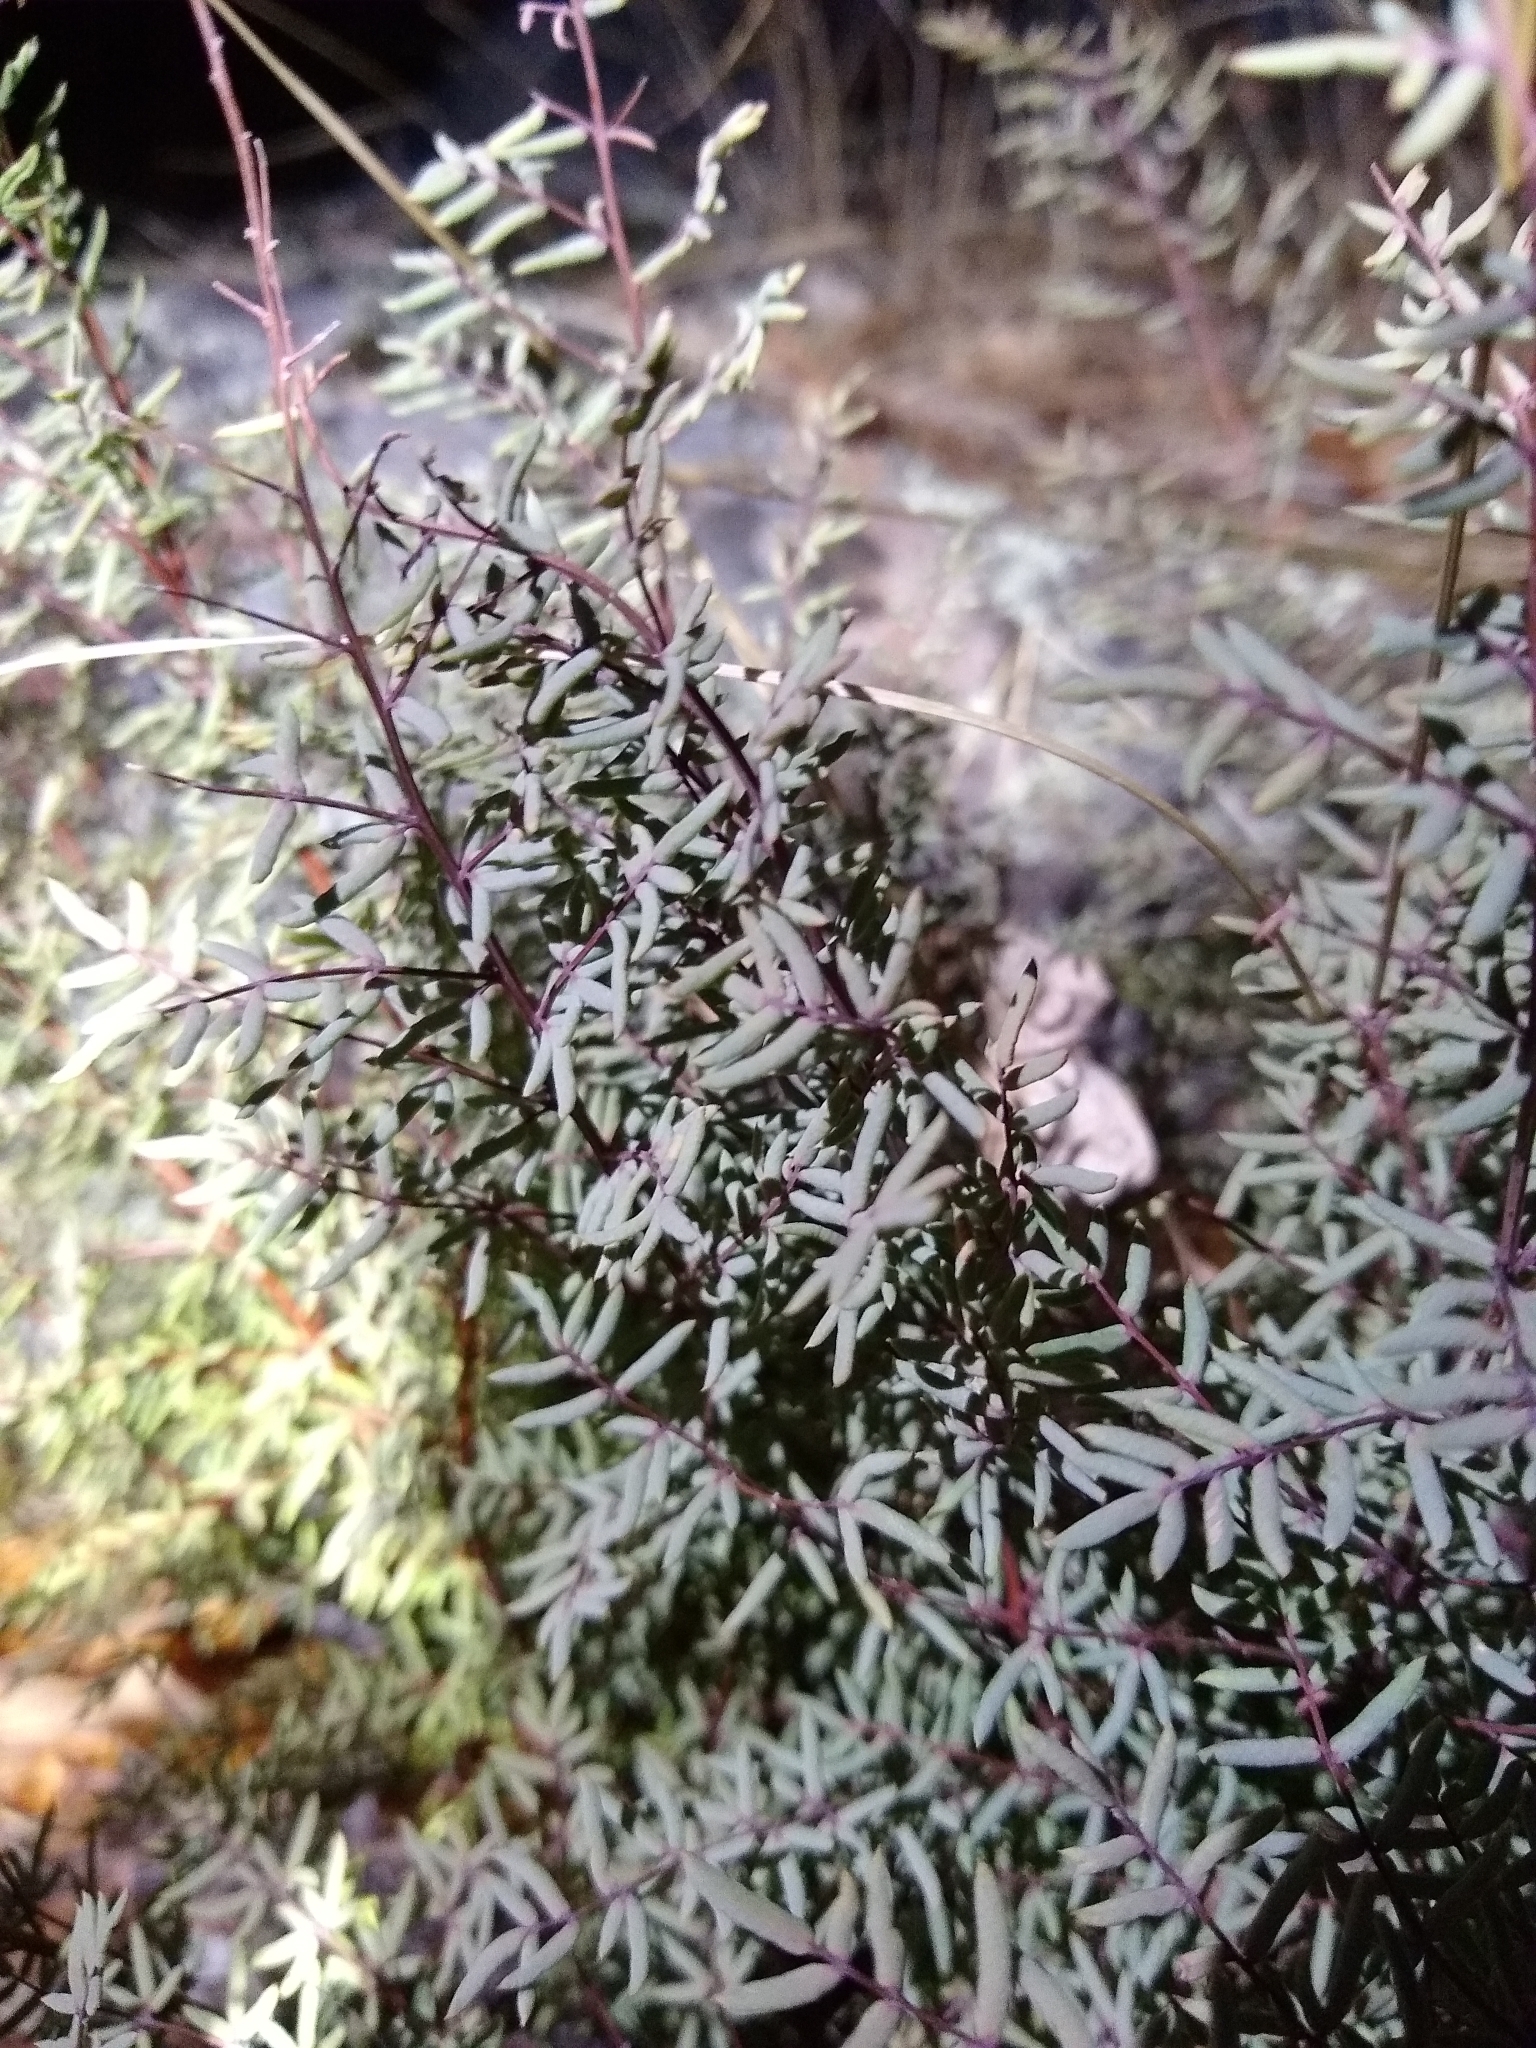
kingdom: Plantae
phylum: Tracheophyta
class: Polypodiopsida
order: Polypodiales
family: Pteridaceae
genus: Pellaea
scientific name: Pellaea mucronata
